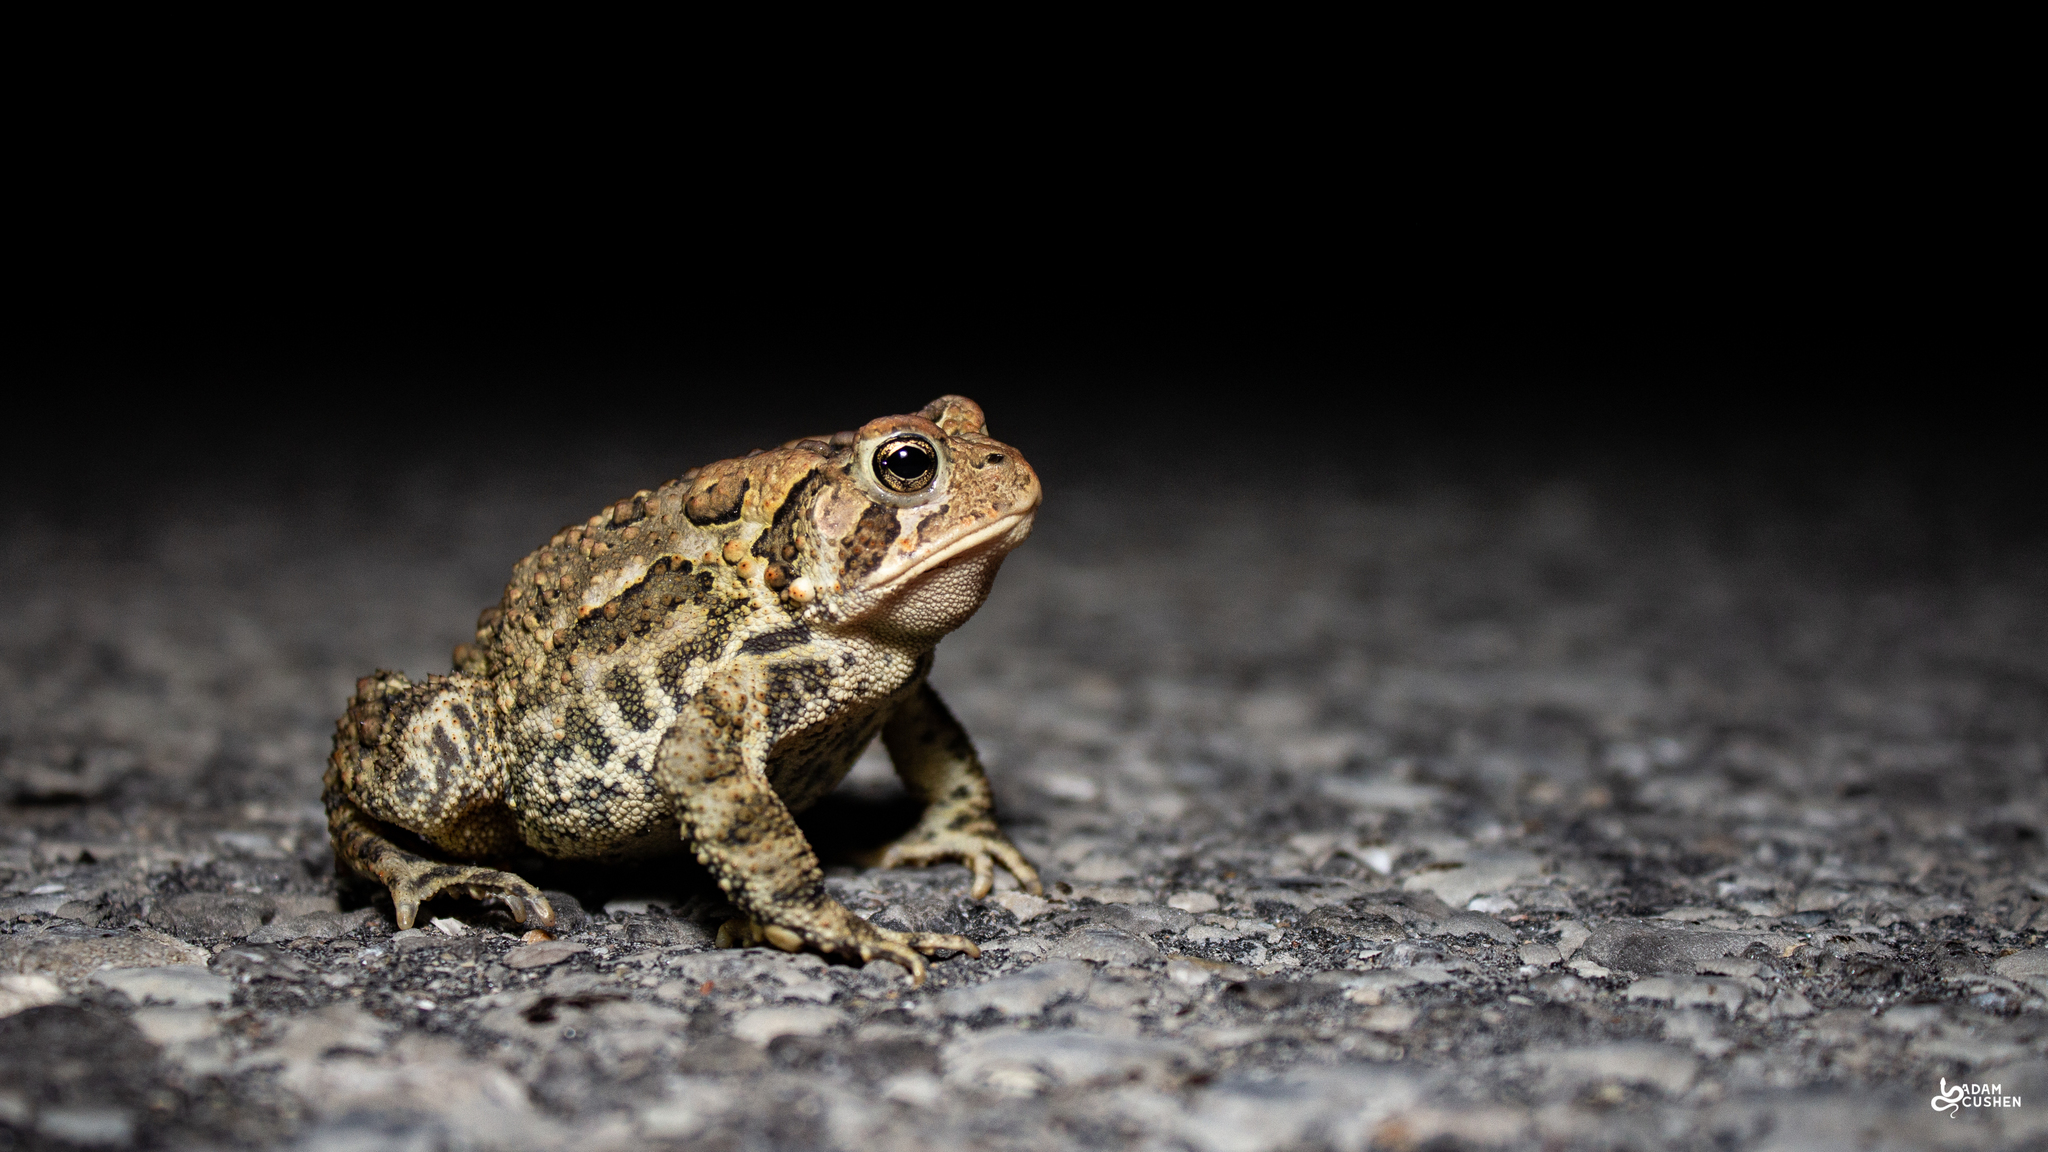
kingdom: Animalia
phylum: Chordata
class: Amphibia
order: Anura
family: Bufonidae
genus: Anaxyrus
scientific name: Anaxyrus americanus
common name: American toad
